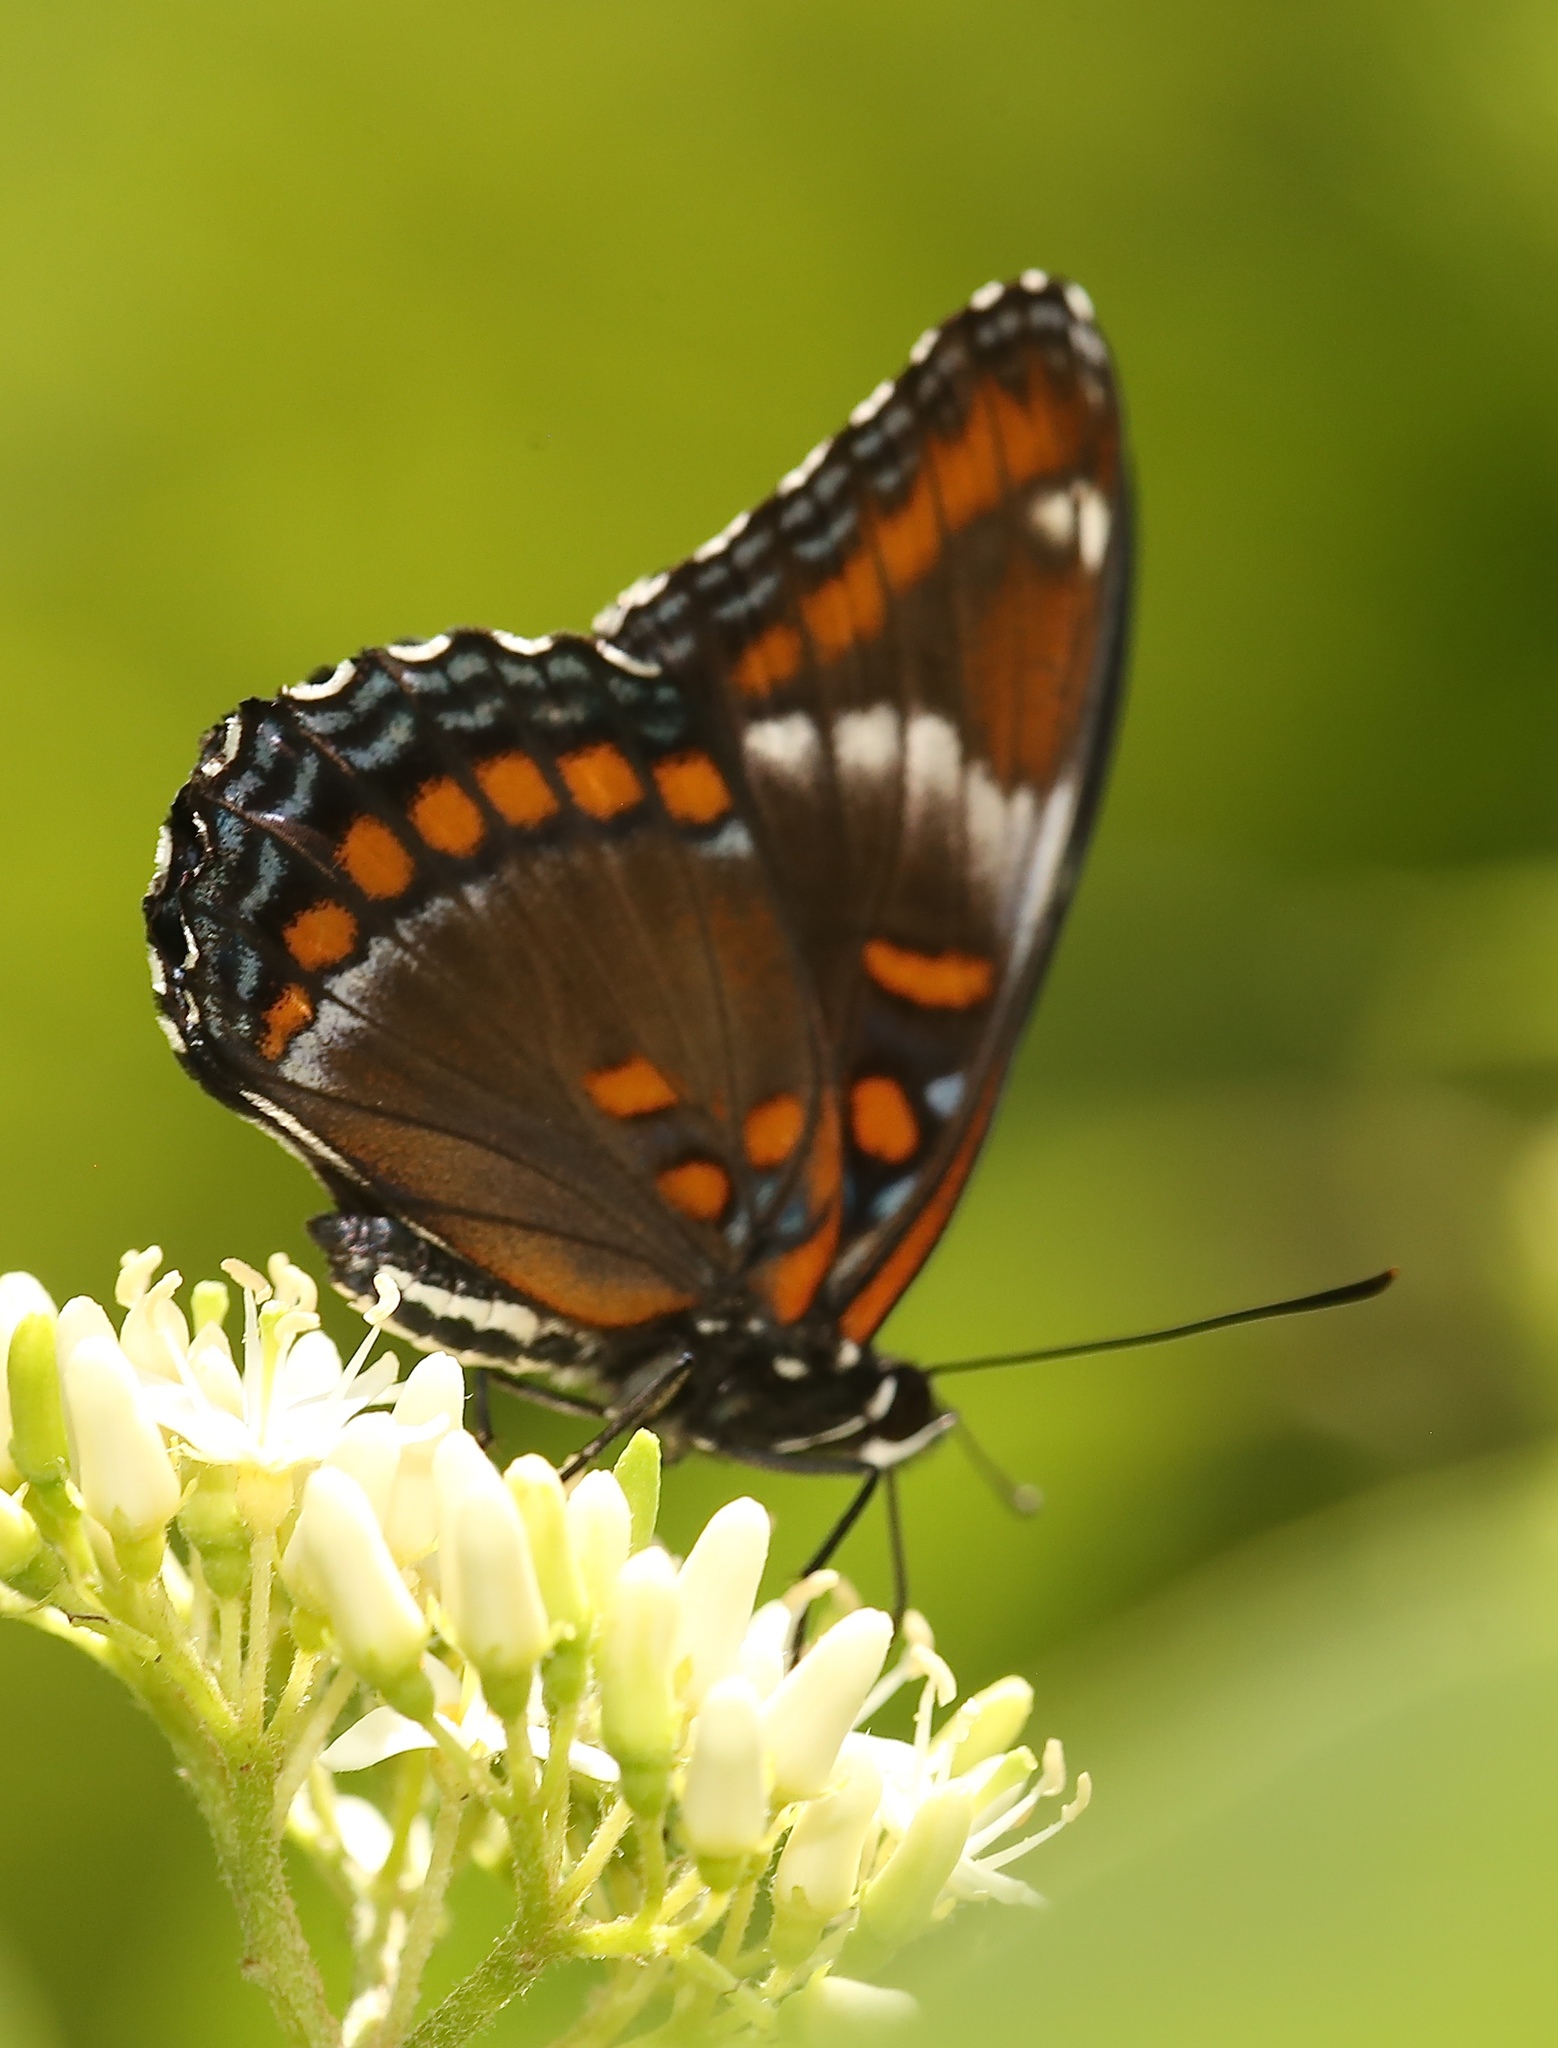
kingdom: Animalia
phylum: Arthropoda
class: Insecta
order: Lepidoptera
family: Nymphalidae
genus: Limenitis
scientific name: Limenitis
